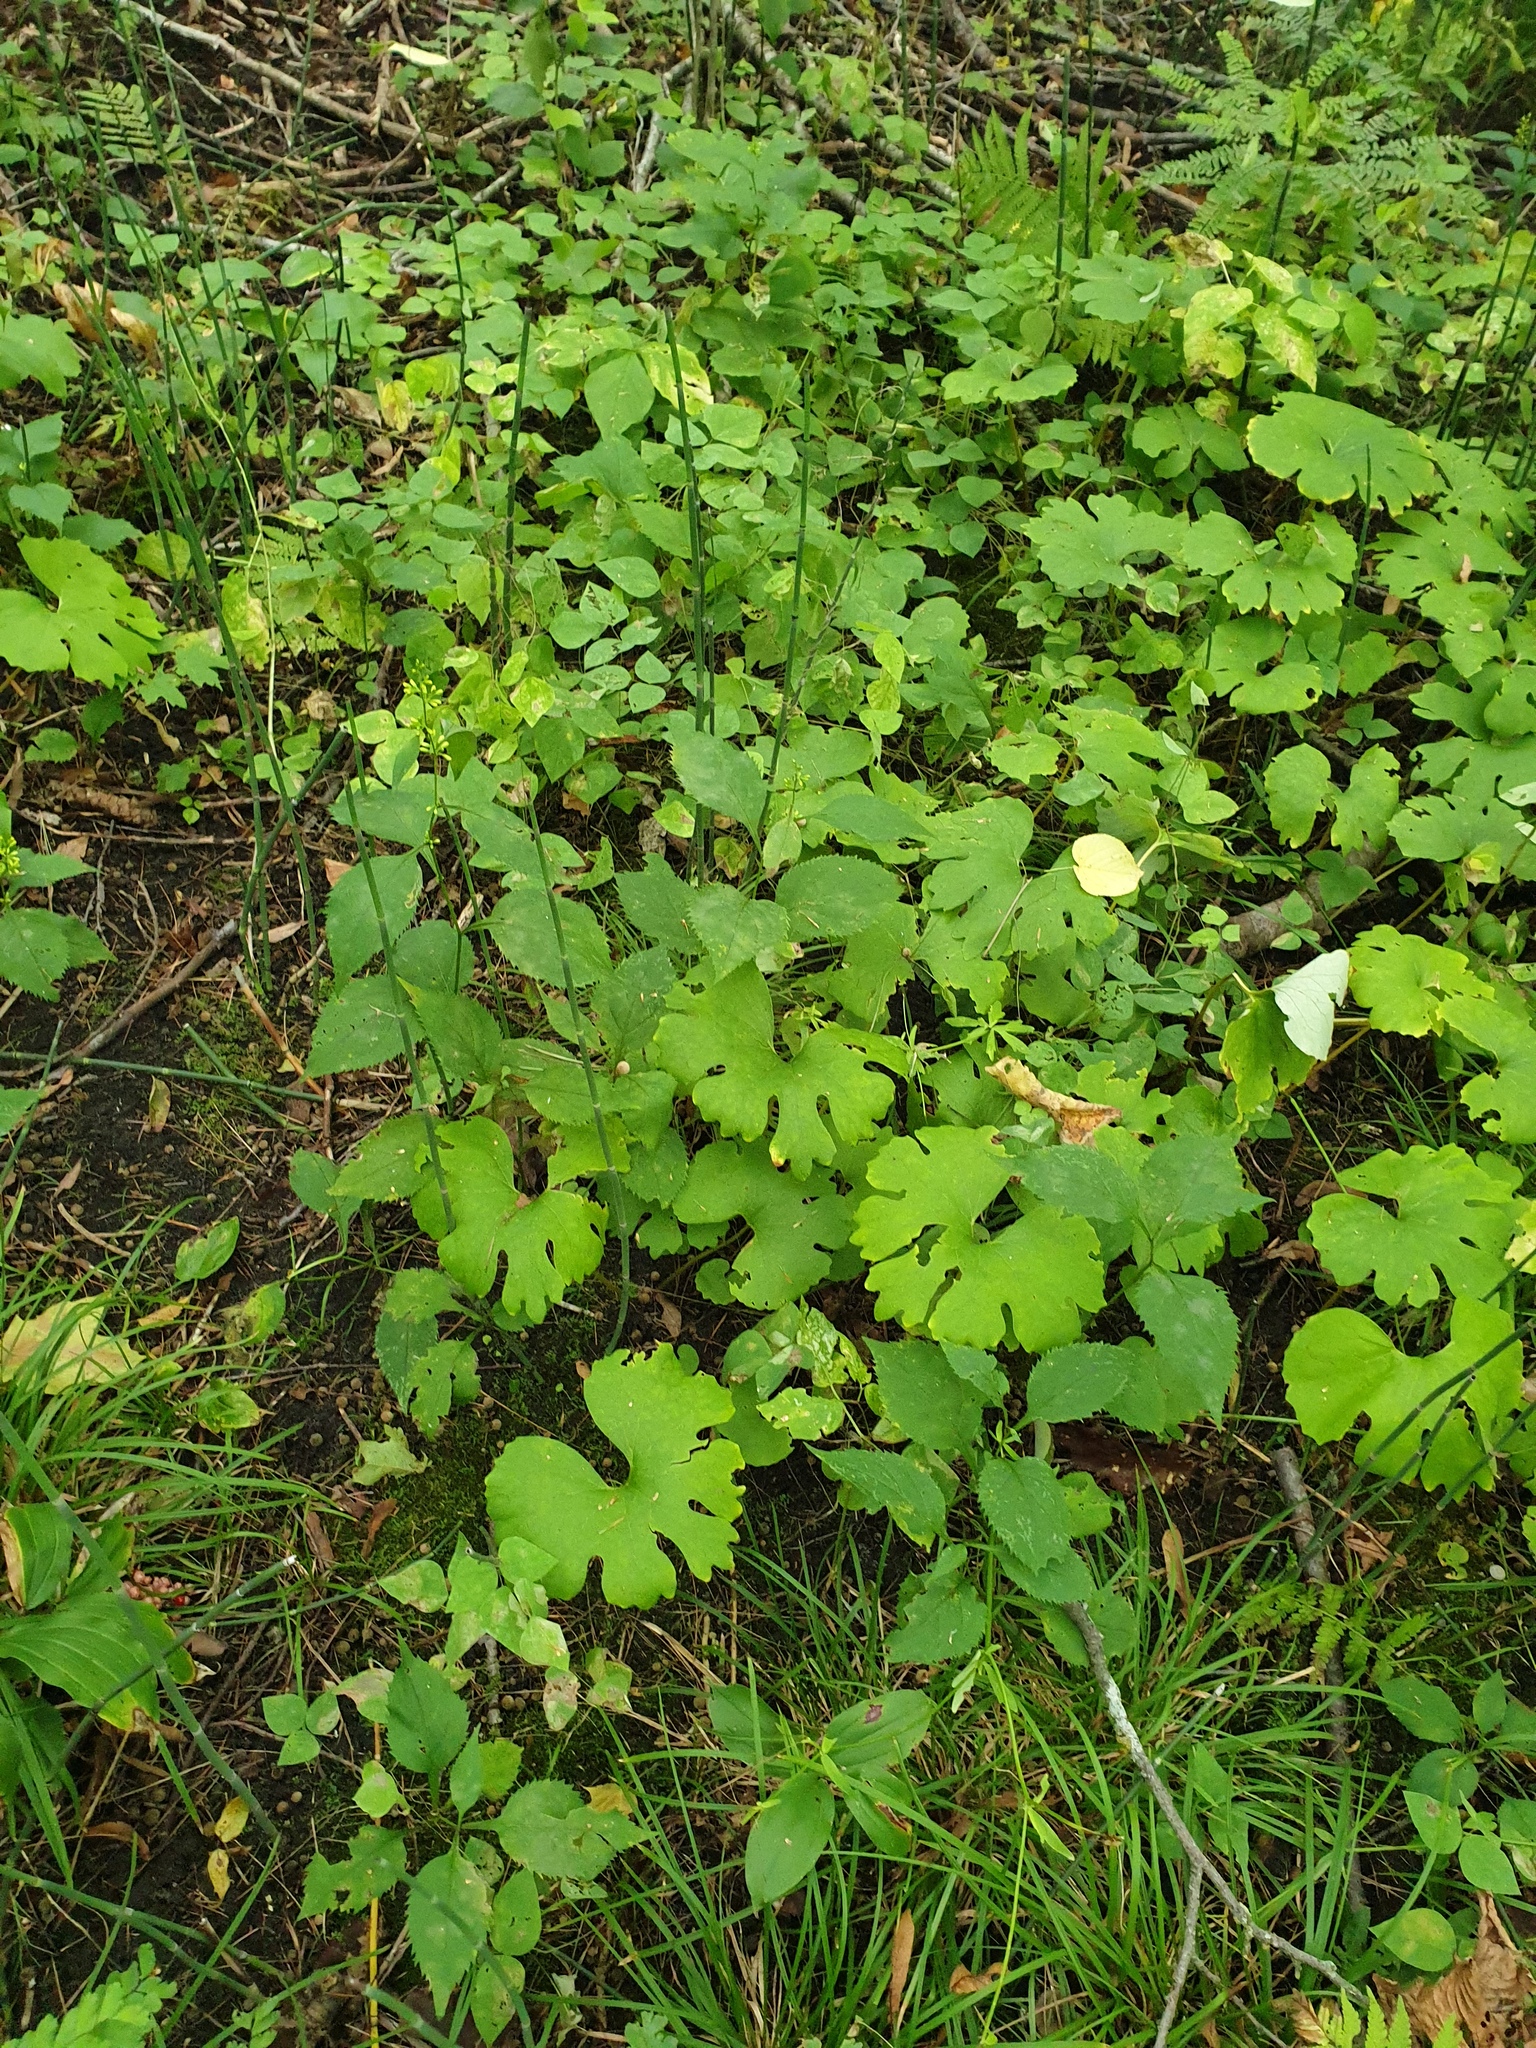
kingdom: Plantae
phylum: Tracheophyta
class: Magnoliopsida
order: Ranunculales
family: Papaveraceae
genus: Sanguinaria
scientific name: Sanguinaria canadensis
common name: Bloodroot
